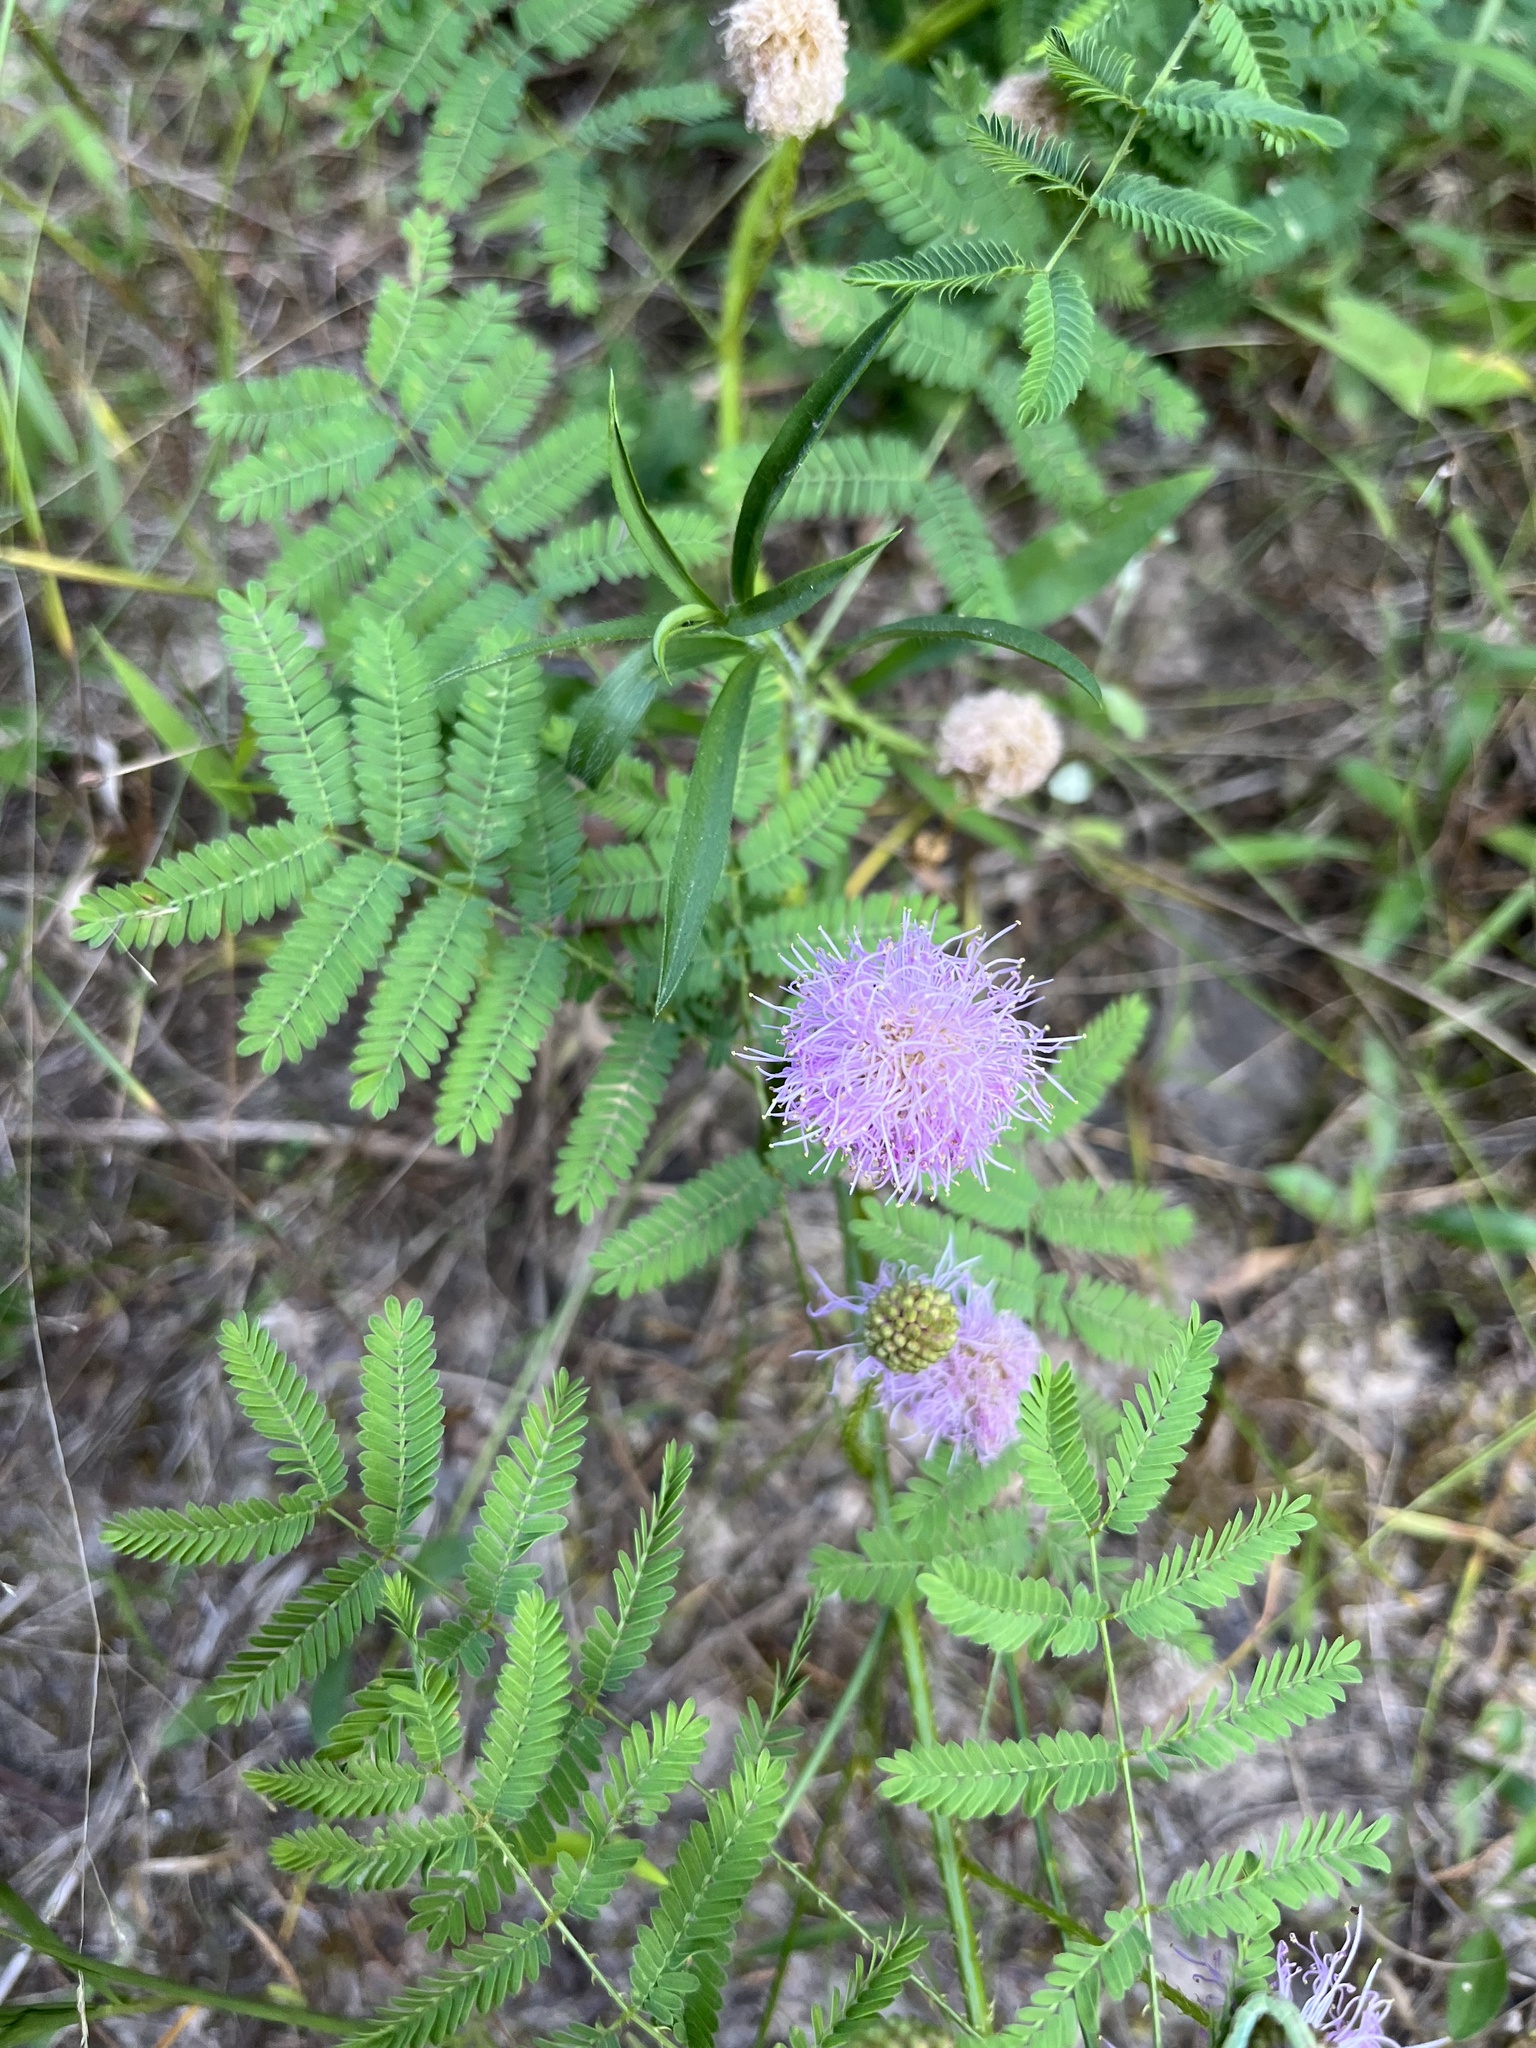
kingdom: Plantae
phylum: Tracheophyta
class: Magnoliopsida
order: Fabales
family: Fabaceae
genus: Mimosa
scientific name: Mimosa quadrivalvis
